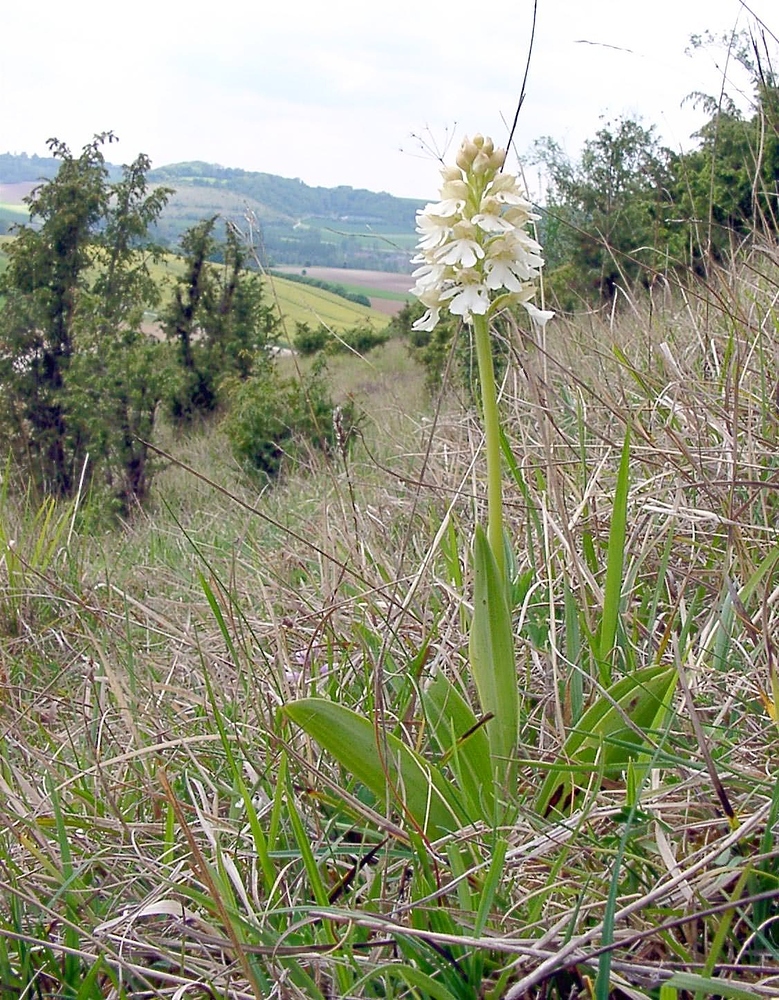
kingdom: Plantae
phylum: Tracheophyta
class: Liliopsida
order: Asparagales
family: Orchidaceae
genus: Orchis
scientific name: Orchis purpurea
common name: Lady orchid
